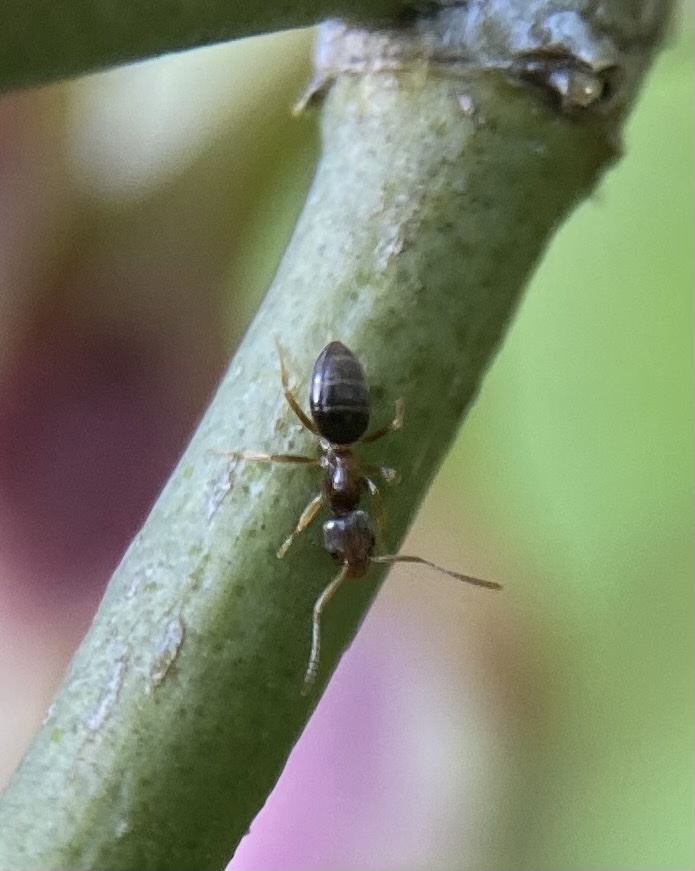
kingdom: Animalia
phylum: Arthropoda
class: Insecta
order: Hymenoptera
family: Formicidae
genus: Tapinoma
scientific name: Tapinoma sessile
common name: Odorous house ant
